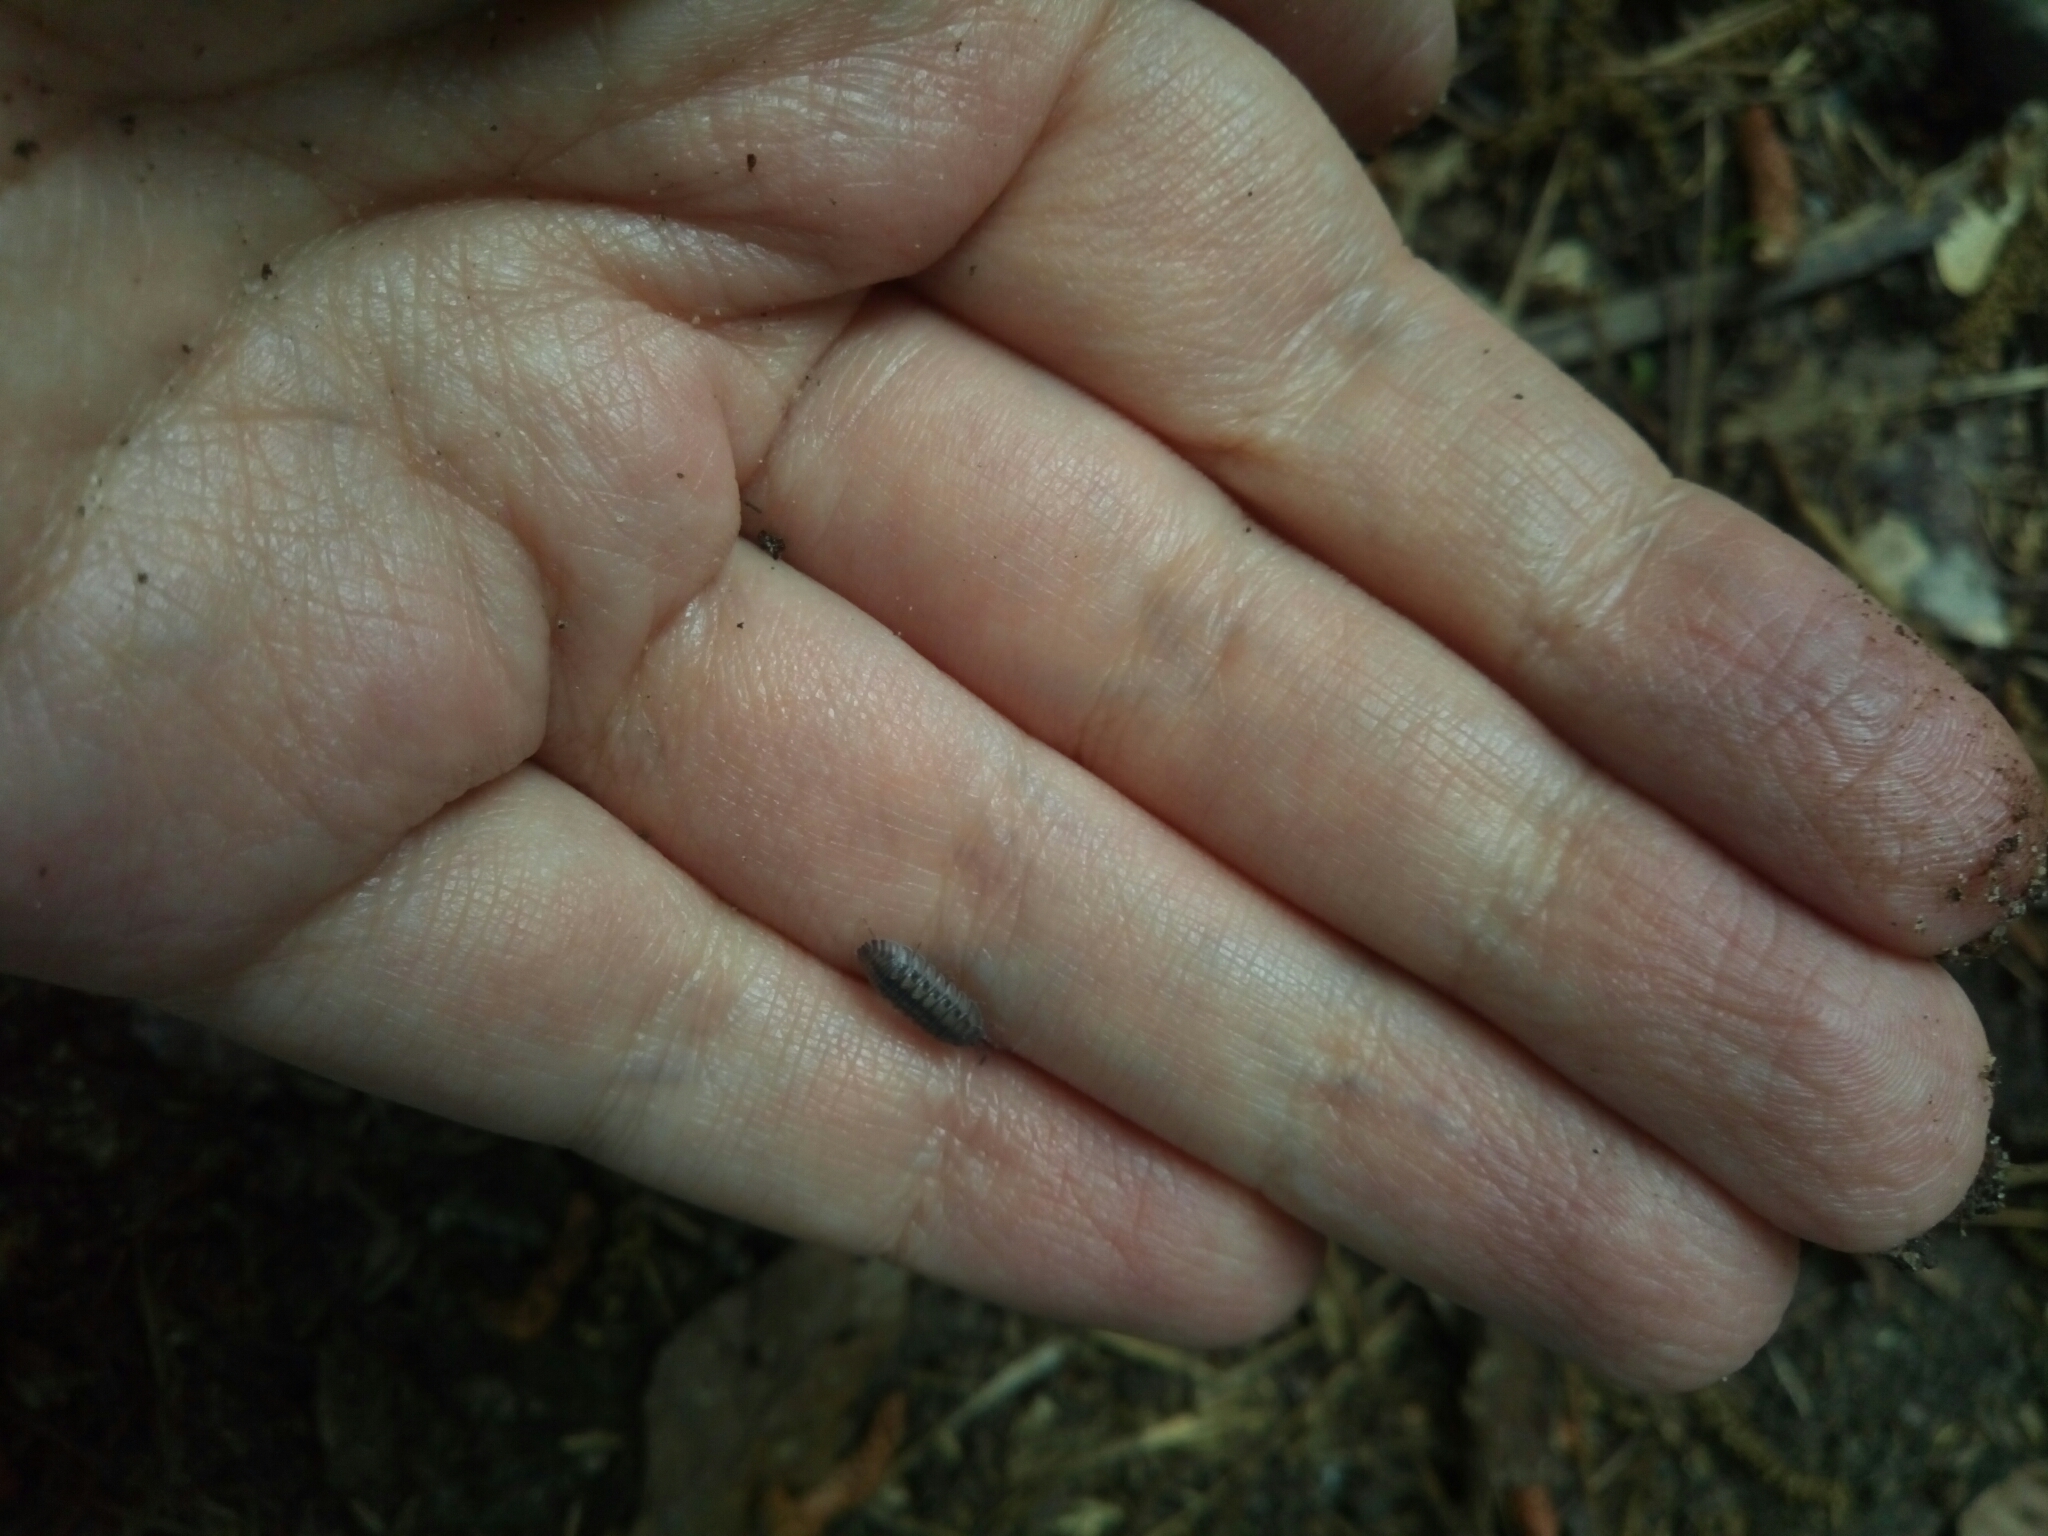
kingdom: Animalia
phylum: Arthropoda
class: Malacostraca
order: Isopoda
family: Armadillidiidae
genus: Armadillidium
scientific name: Armadillidium nasatum
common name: Isopod
